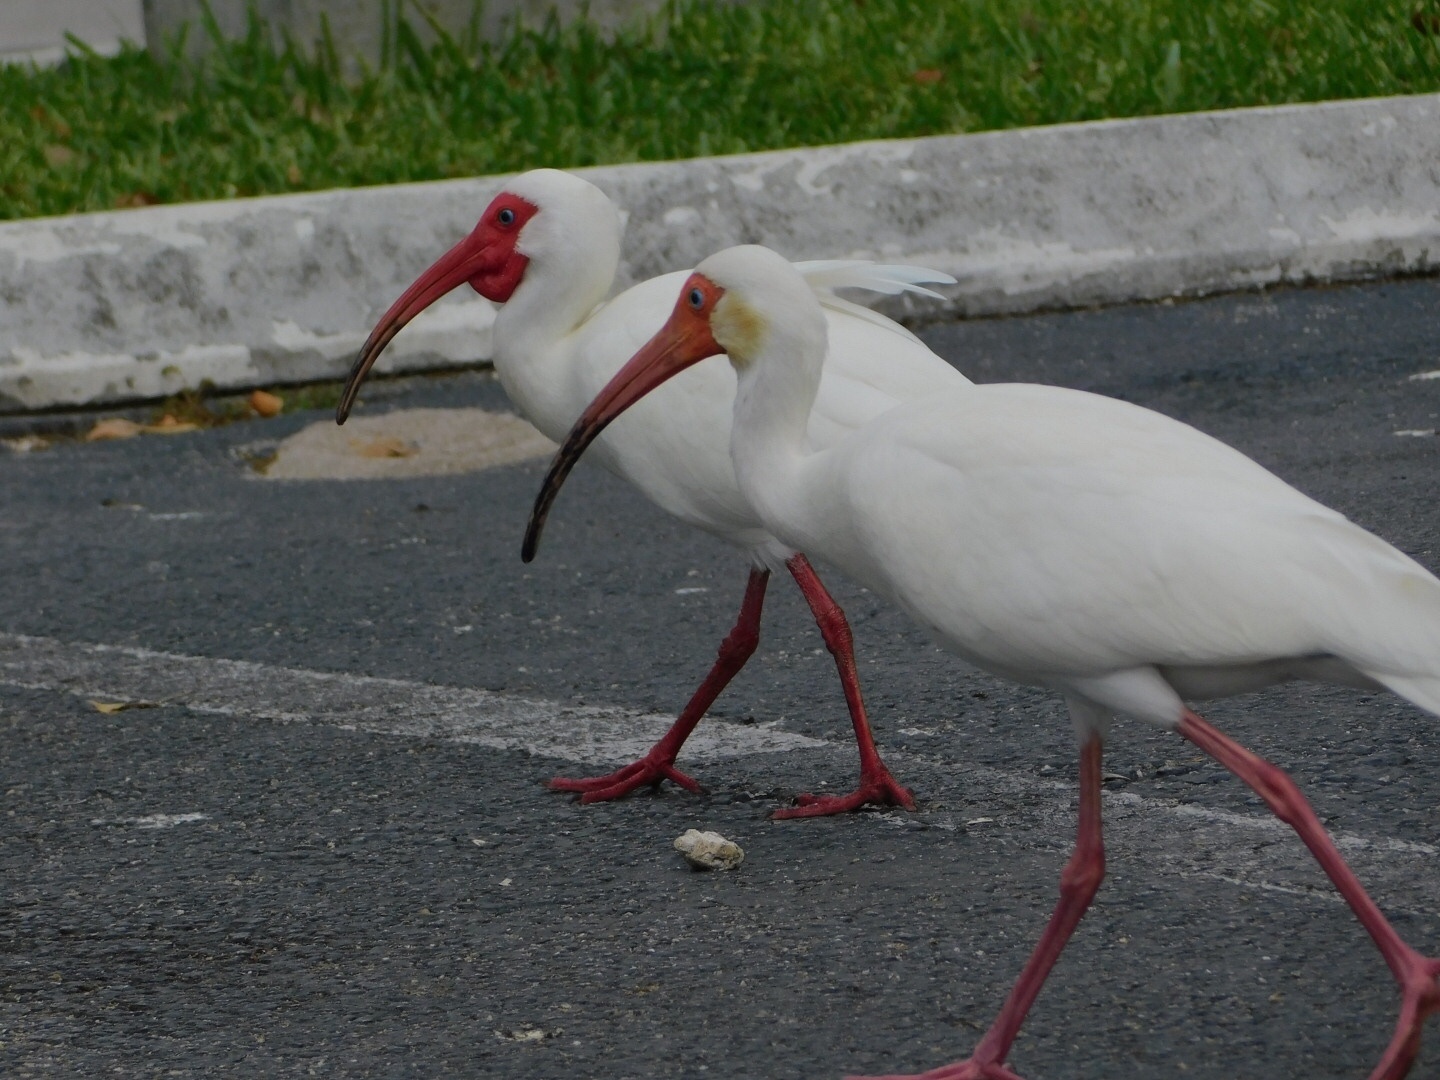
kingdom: Animalia
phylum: Chordata
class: Aves
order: Pelecaniformes
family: Threskiornithidae
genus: Eudocimus
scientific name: Eudocimus albus
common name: White ibis
